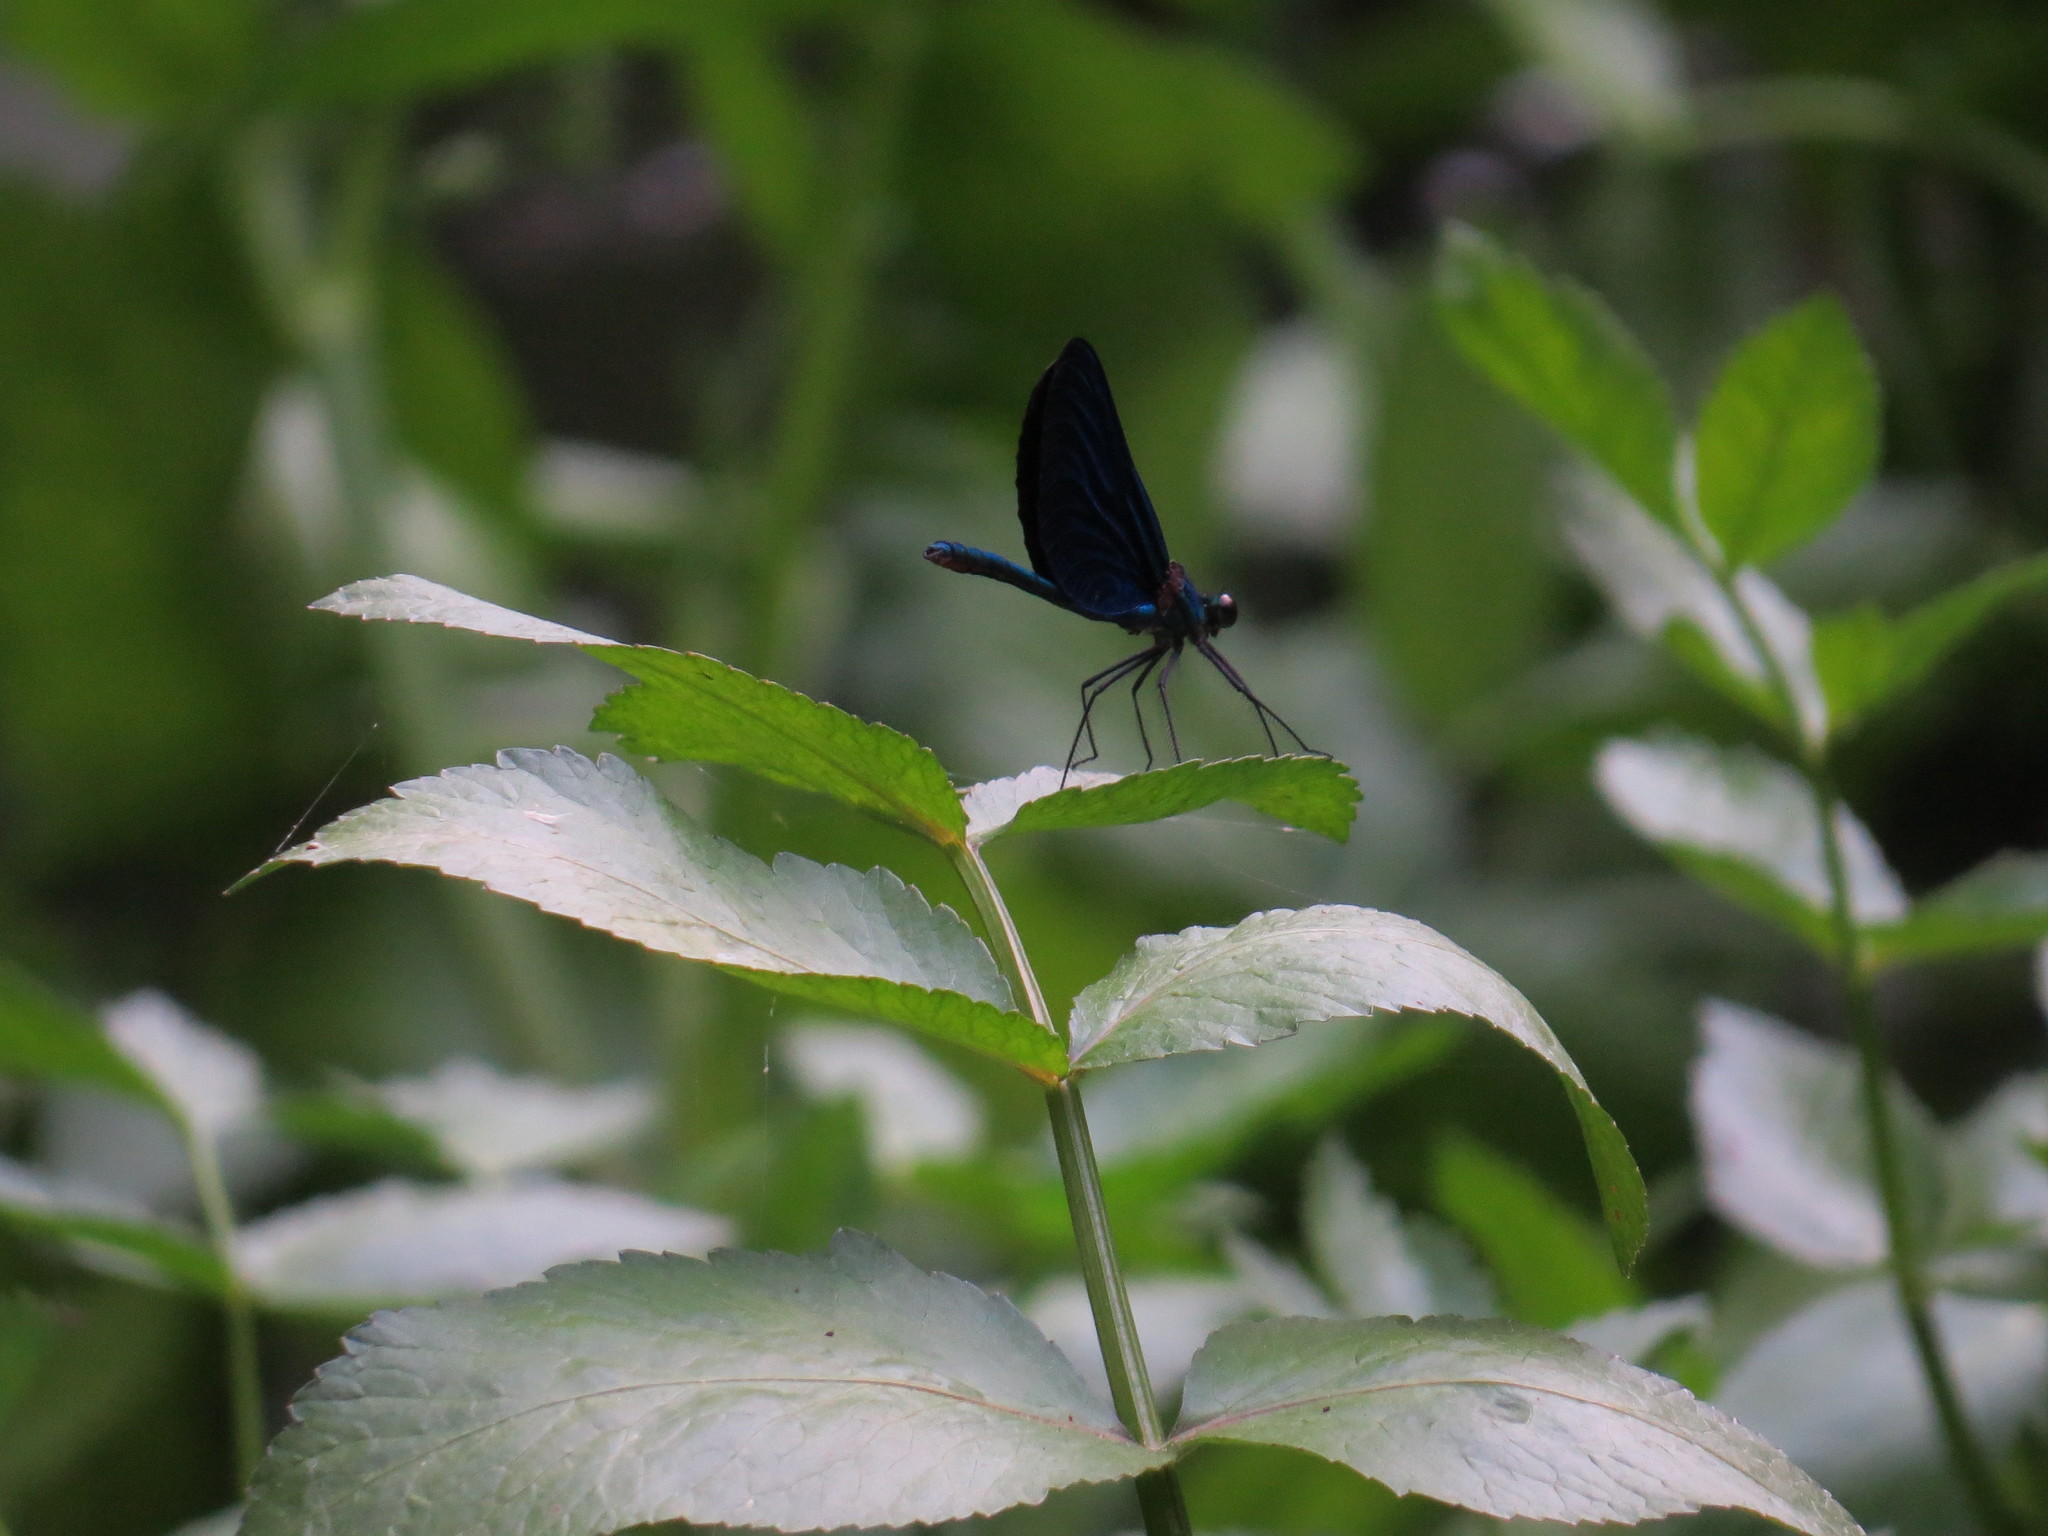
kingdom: Animalia
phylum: Arthropoda
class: Insecta
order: Odonata
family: Calopterygidae
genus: Calopteryx
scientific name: Calopteryx virgo
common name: Beautiful demoiselle
